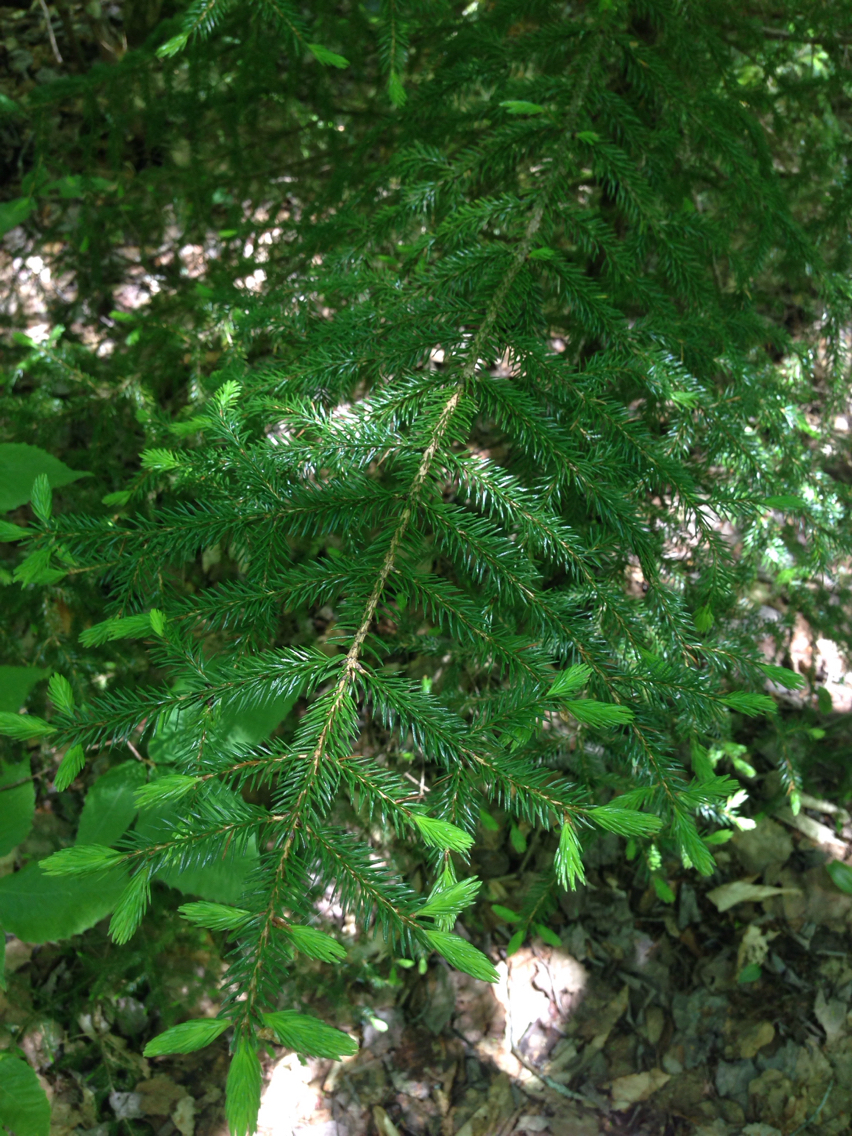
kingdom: Plantae
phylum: Tracheophyta
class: Pinopsida
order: Pinales
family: Pinaceae
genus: Picea
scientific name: Picea rubens
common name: Red spruce
